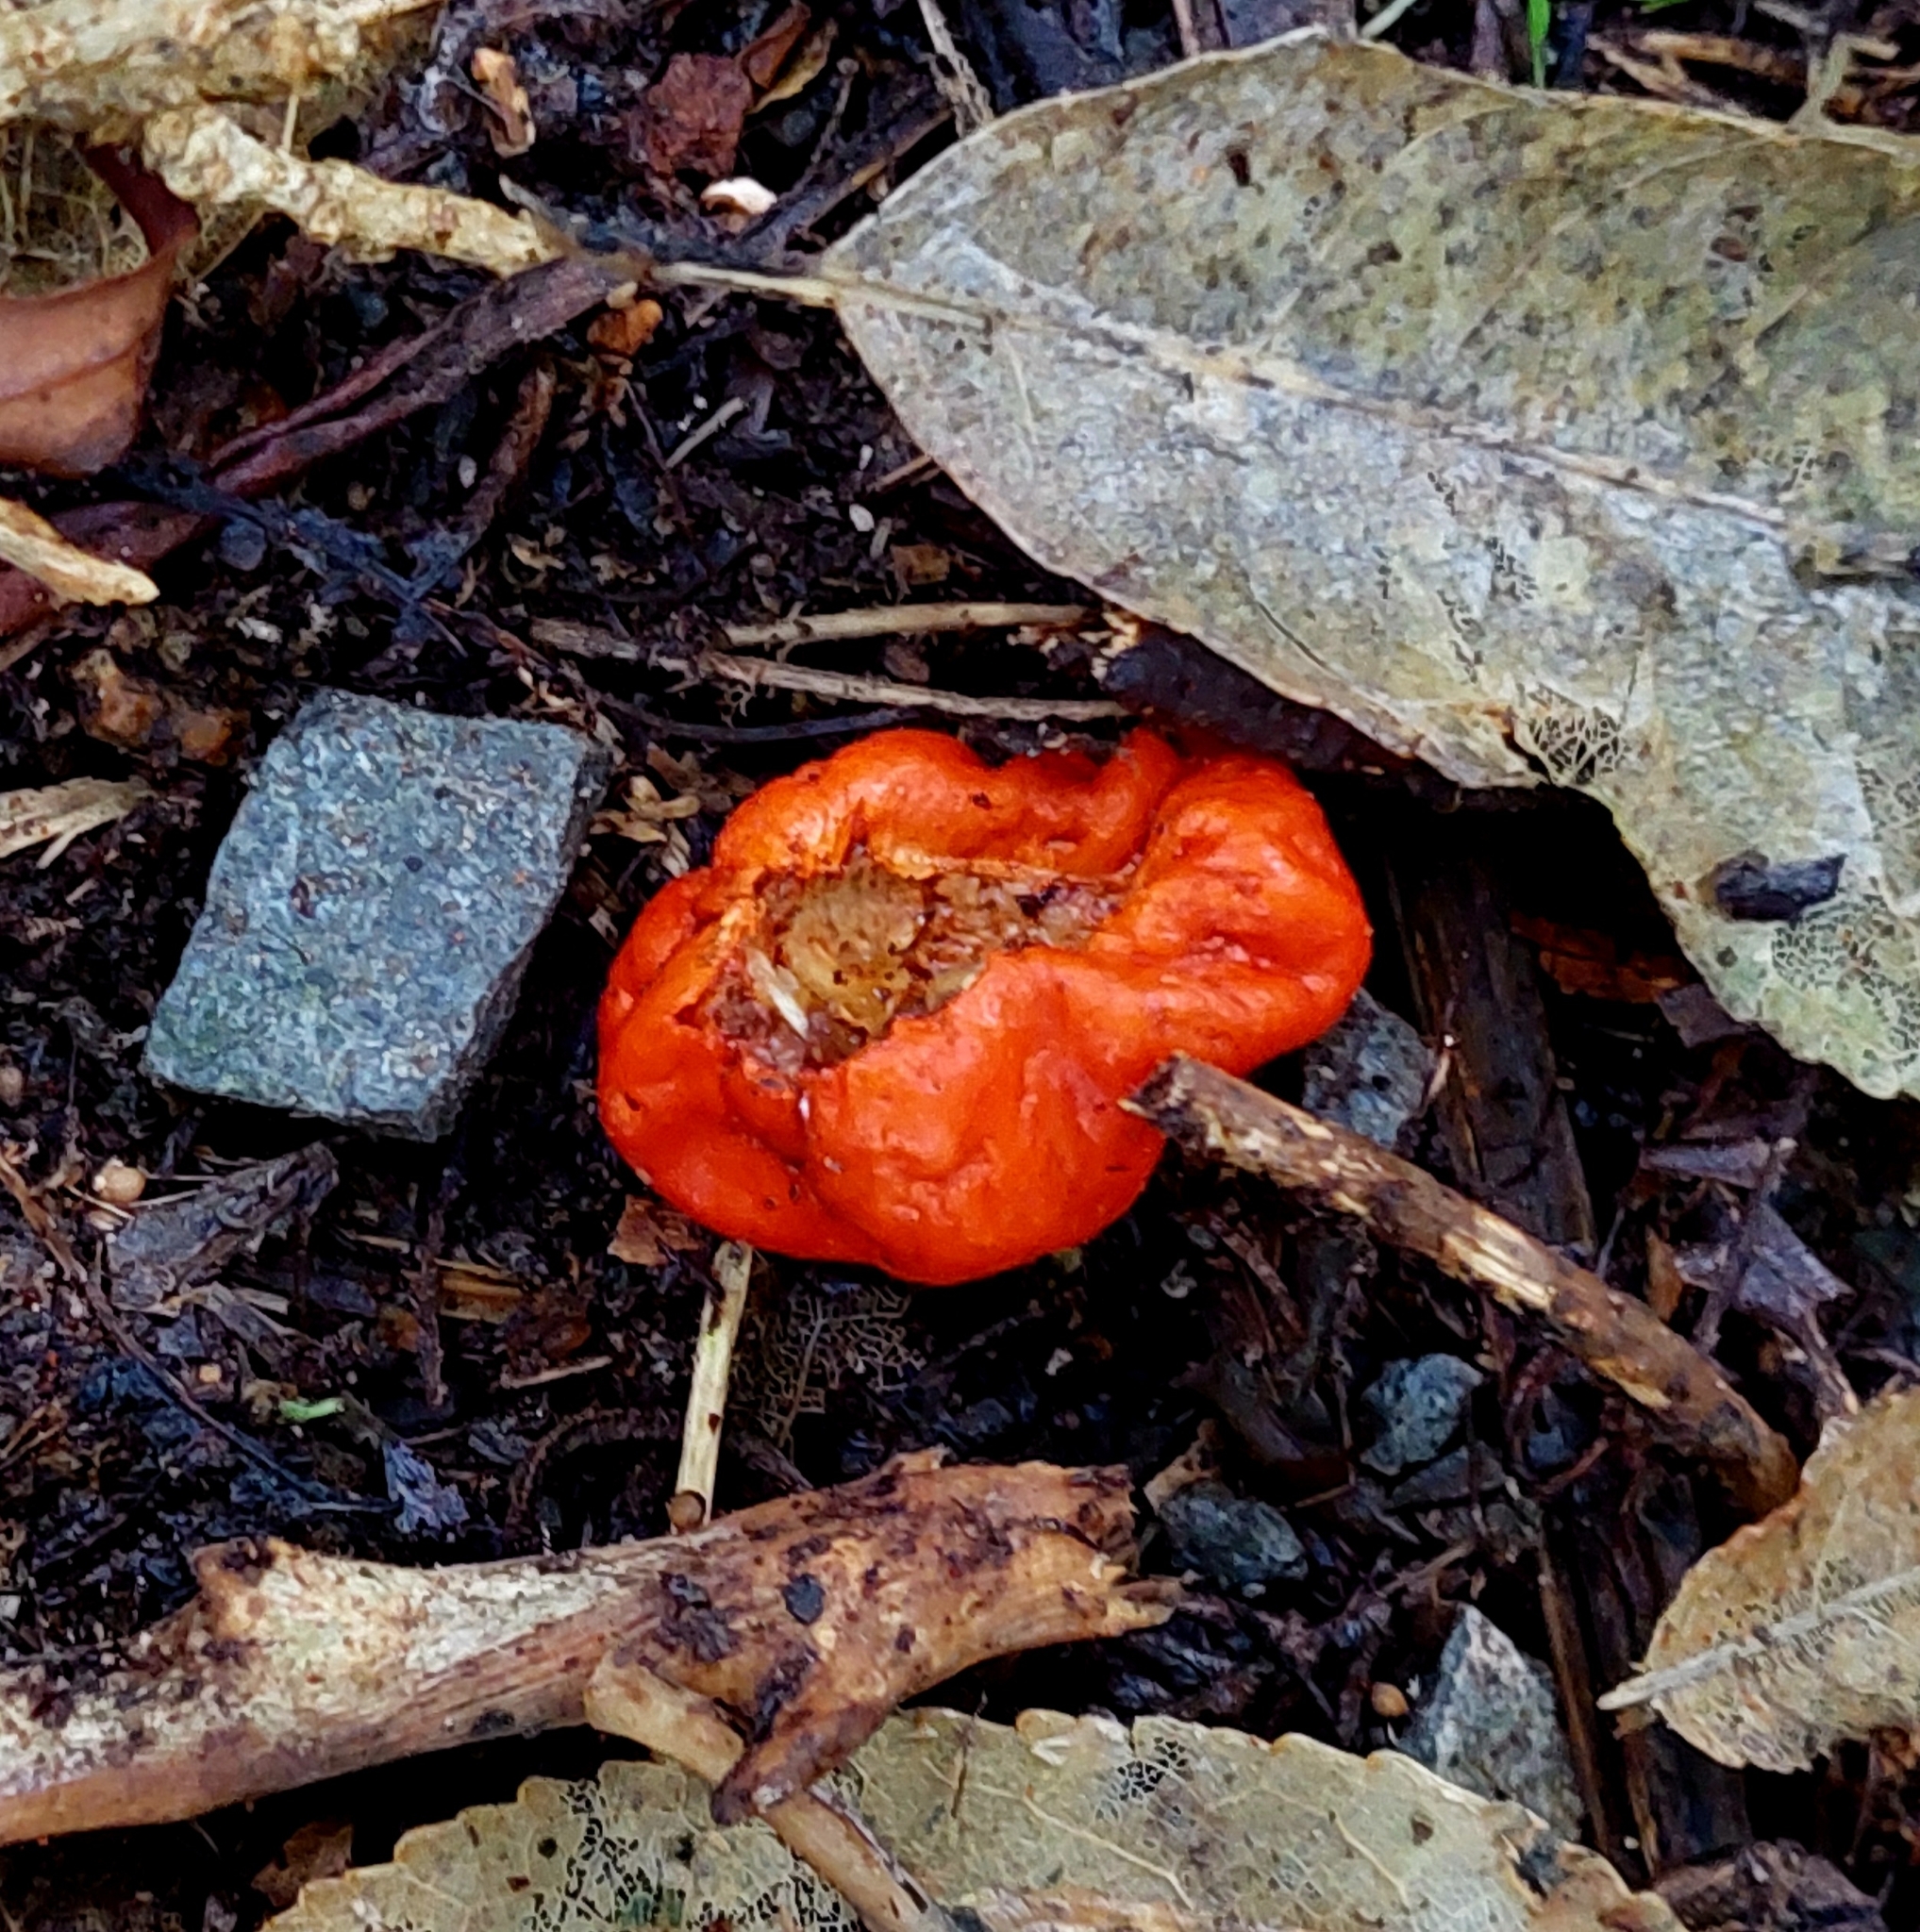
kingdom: Fungi
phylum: Basidiomycota
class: Agaricomycetes
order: Agaricales
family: Strophariaceae
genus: Leratiomyces
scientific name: Leratiomyces erythrocephalus
